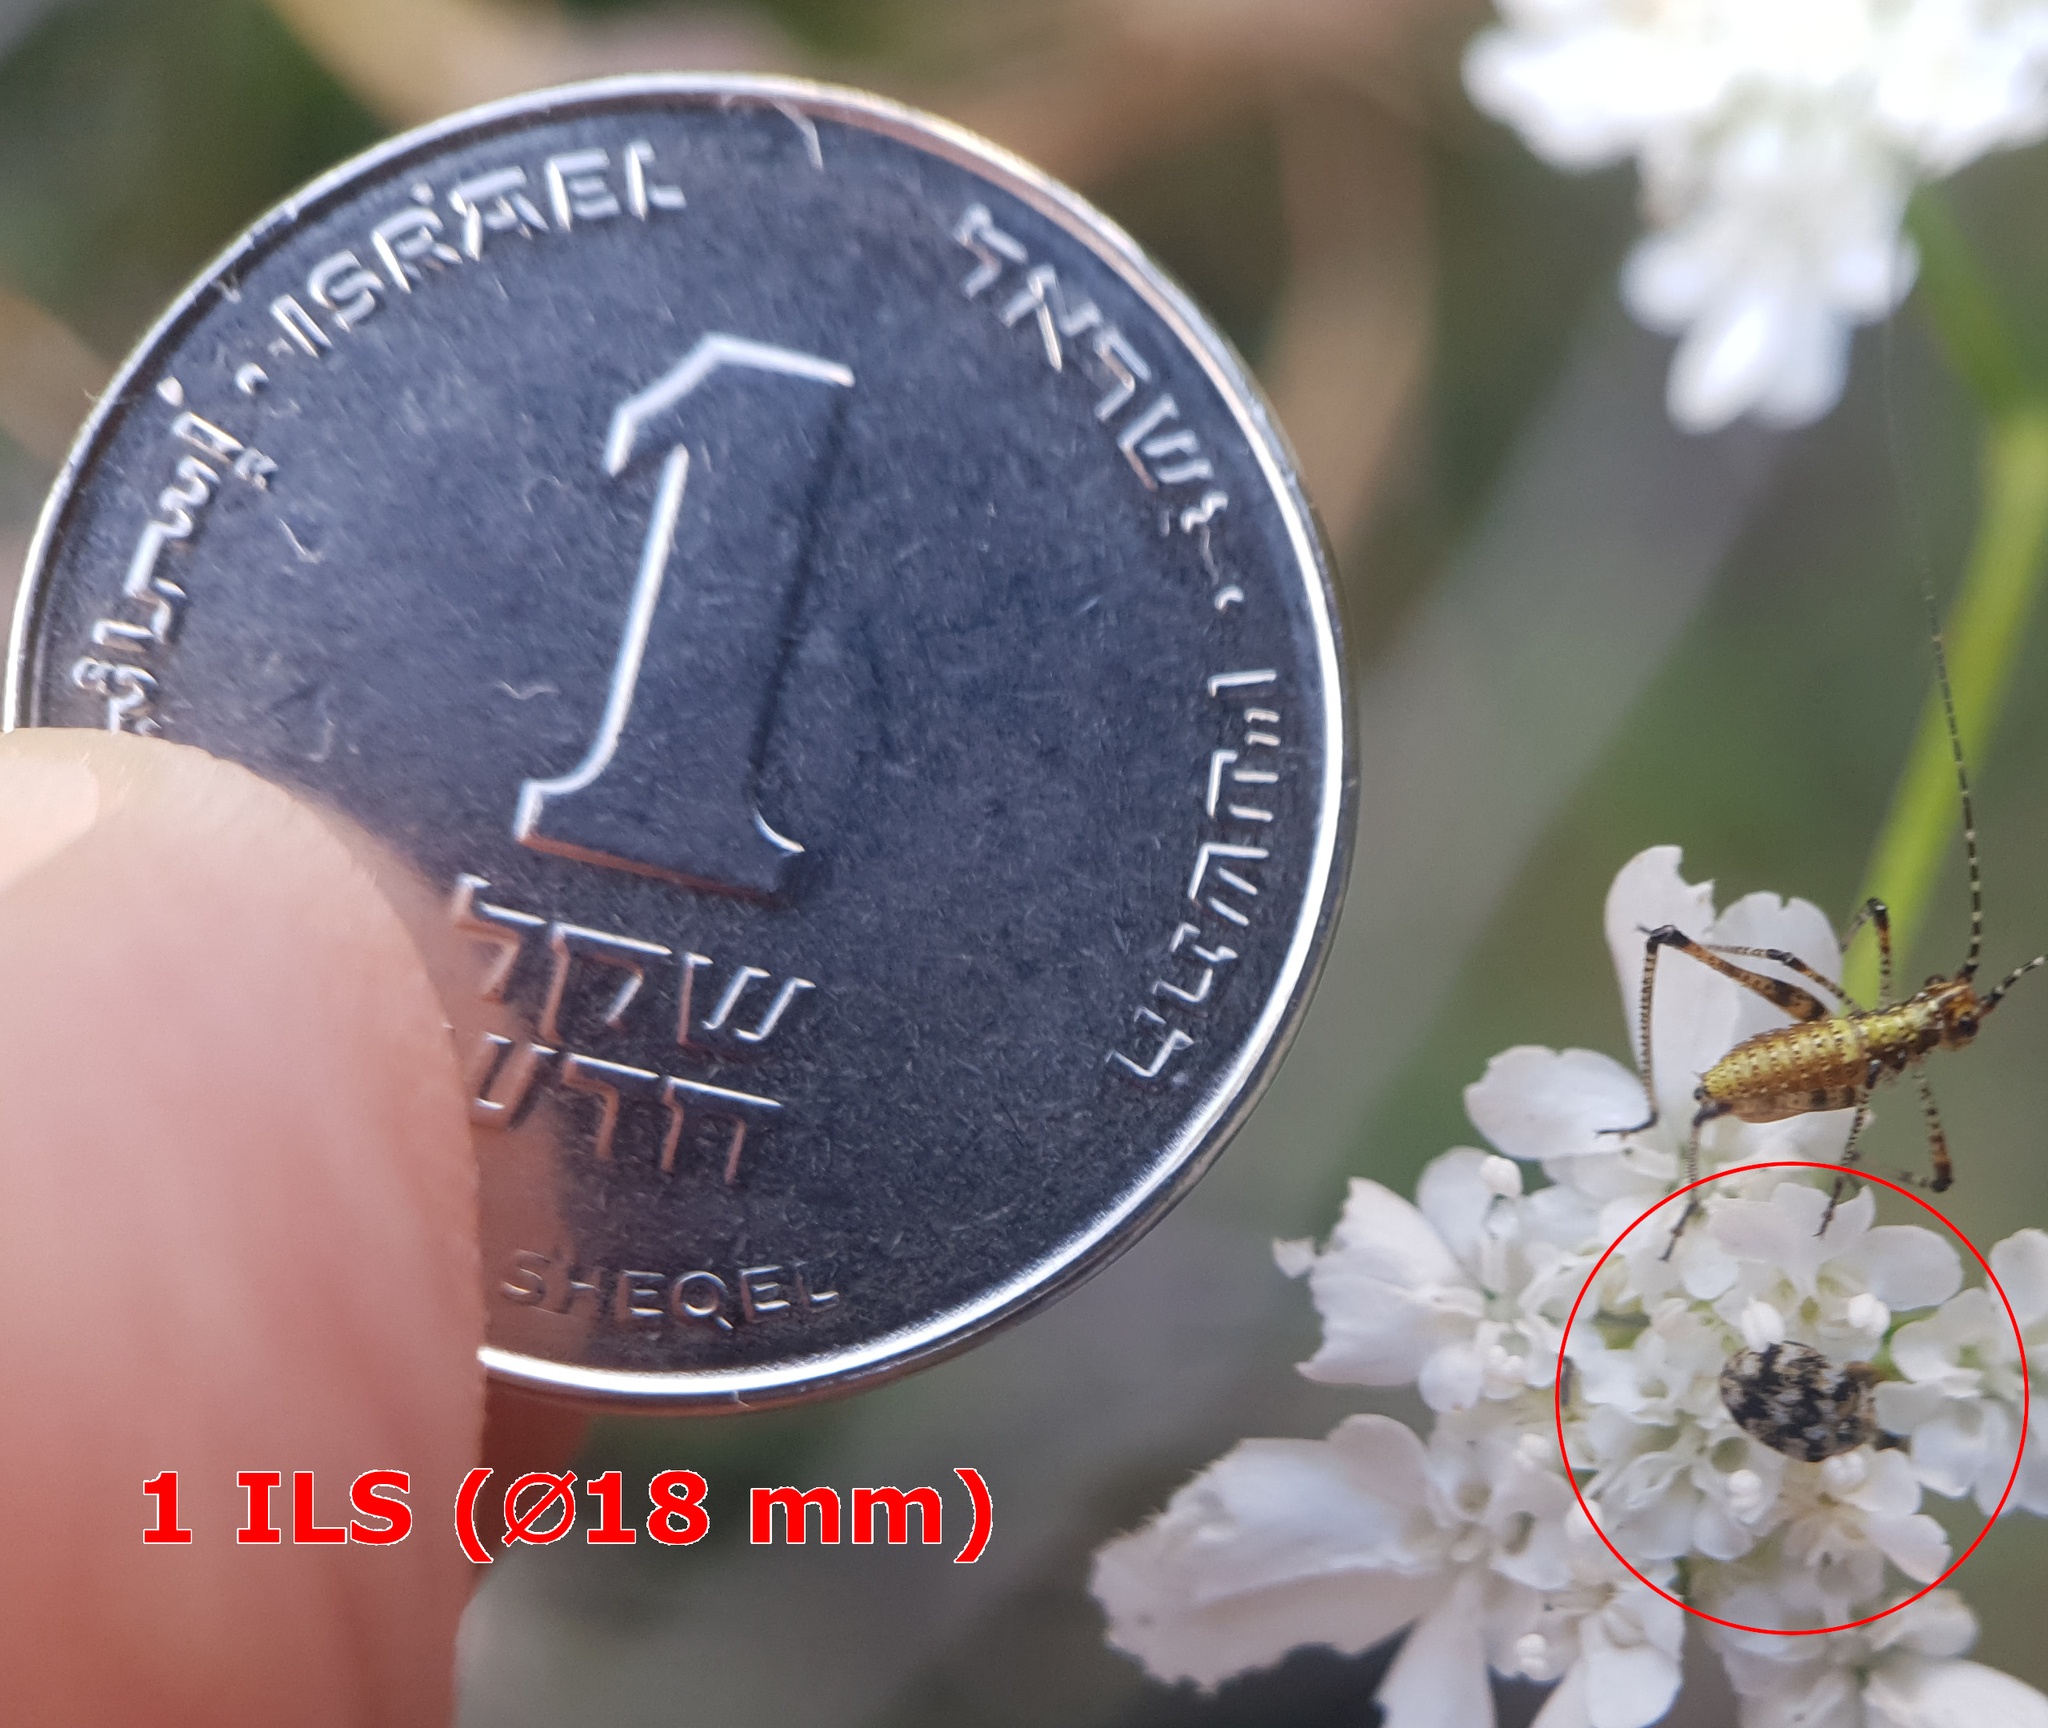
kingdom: Animalia
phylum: Arthropoda
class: Insecta
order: Coleoptera
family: Dermestidae
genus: Anthrenus
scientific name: Anthrenus verbasci
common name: Varied carpet beetle
